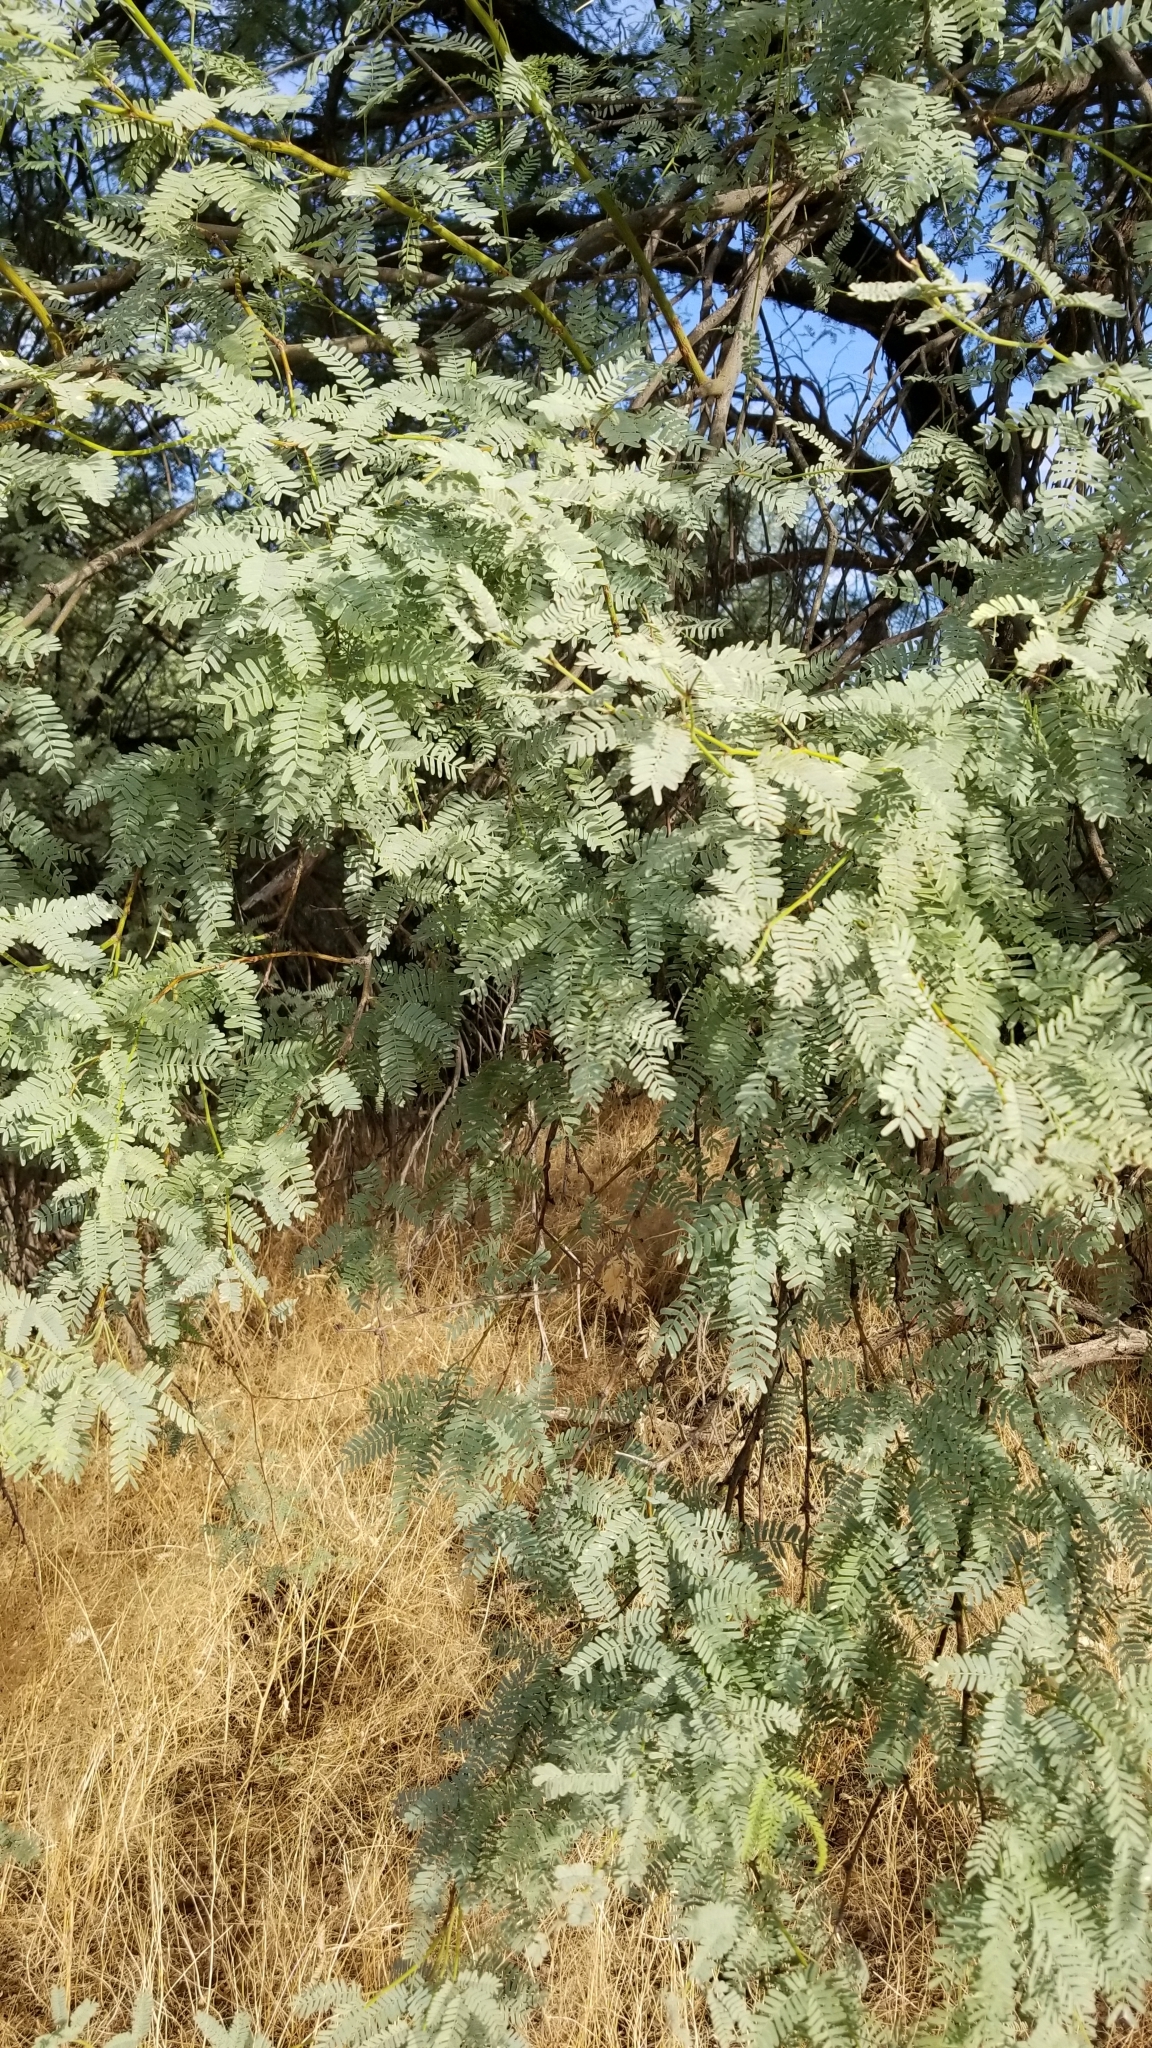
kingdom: Plantae
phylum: Tracheophyta
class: Magnoliopsida
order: Fabales
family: Fabaceae
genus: Prosopis
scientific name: Prosopis velutina
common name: Velvet mesquite
